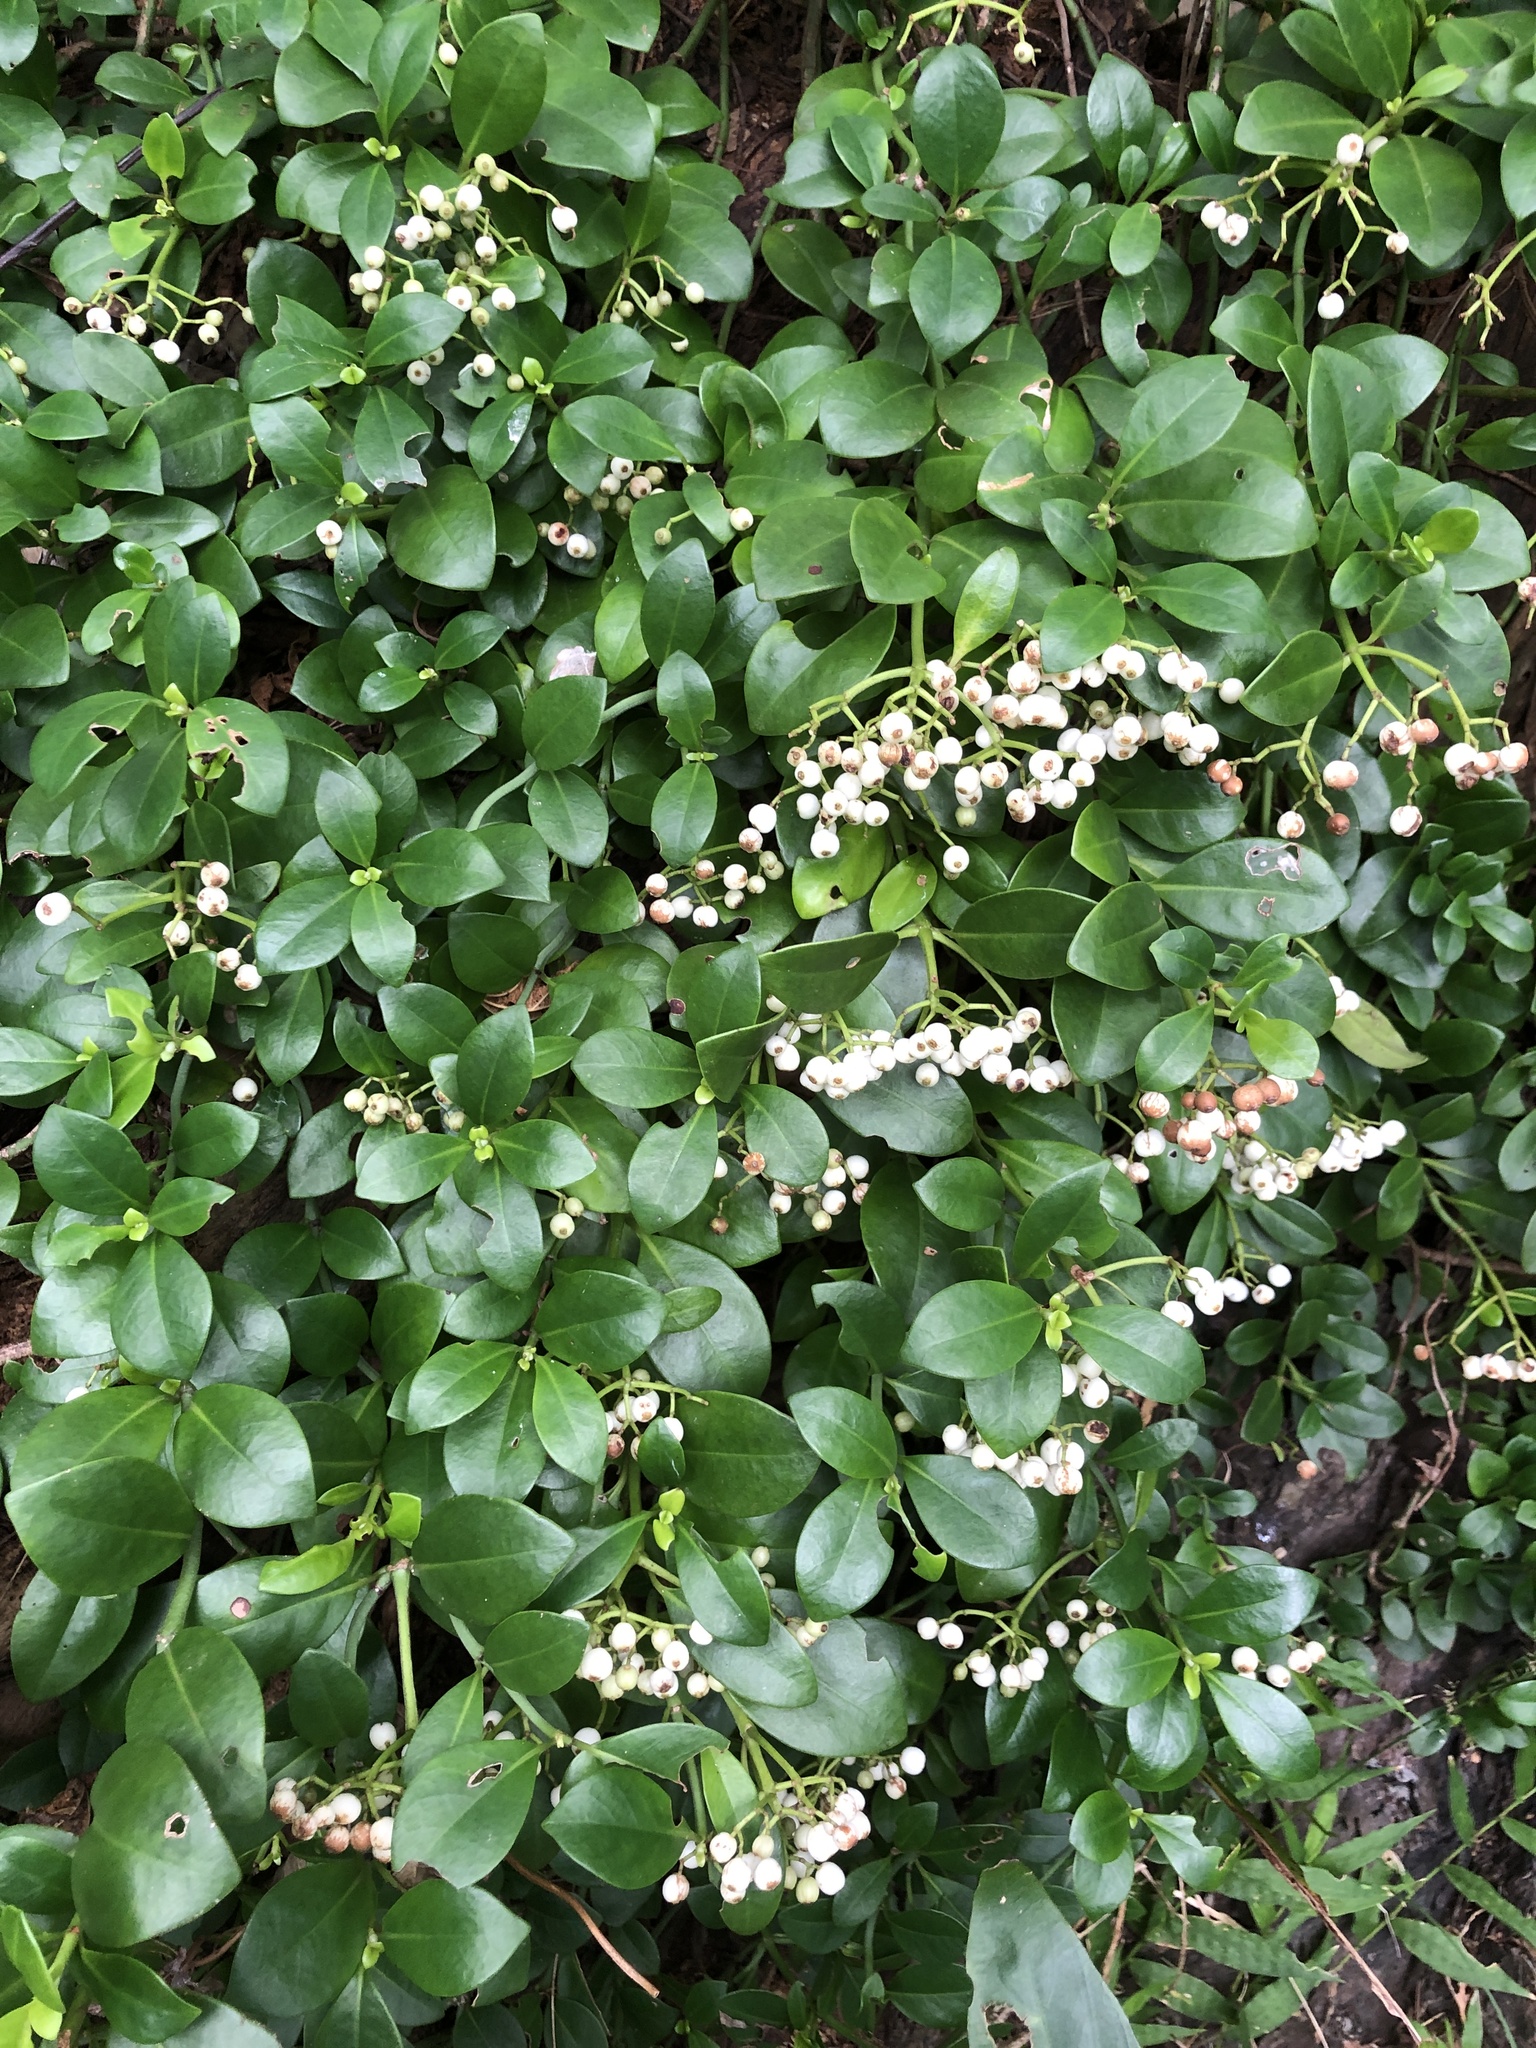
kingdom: Plantae
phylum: Tracheophyta
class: Magnoliopsida
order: Gentianales
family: Rubiaceae
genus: Psychotria
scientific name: Psychotria serpens
